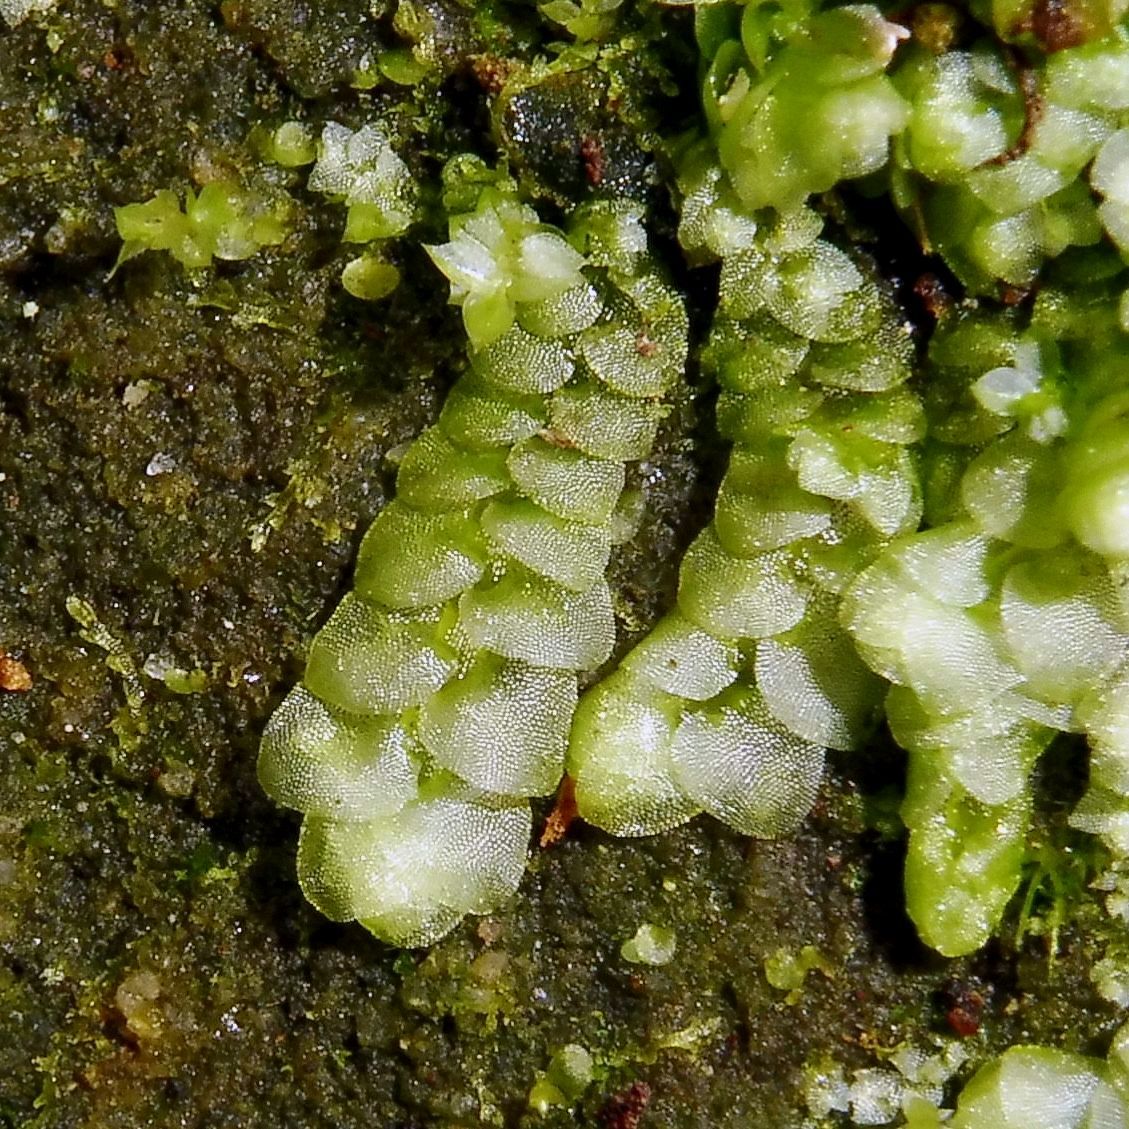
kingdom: Plantae
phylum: Marchantiophyta
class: Jungermanniopsida
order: Jungermanniales
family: Calypogeiaceae
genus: Calypogeia
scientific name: Calypogeia muelleriana
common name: Mueller s pouchwort
